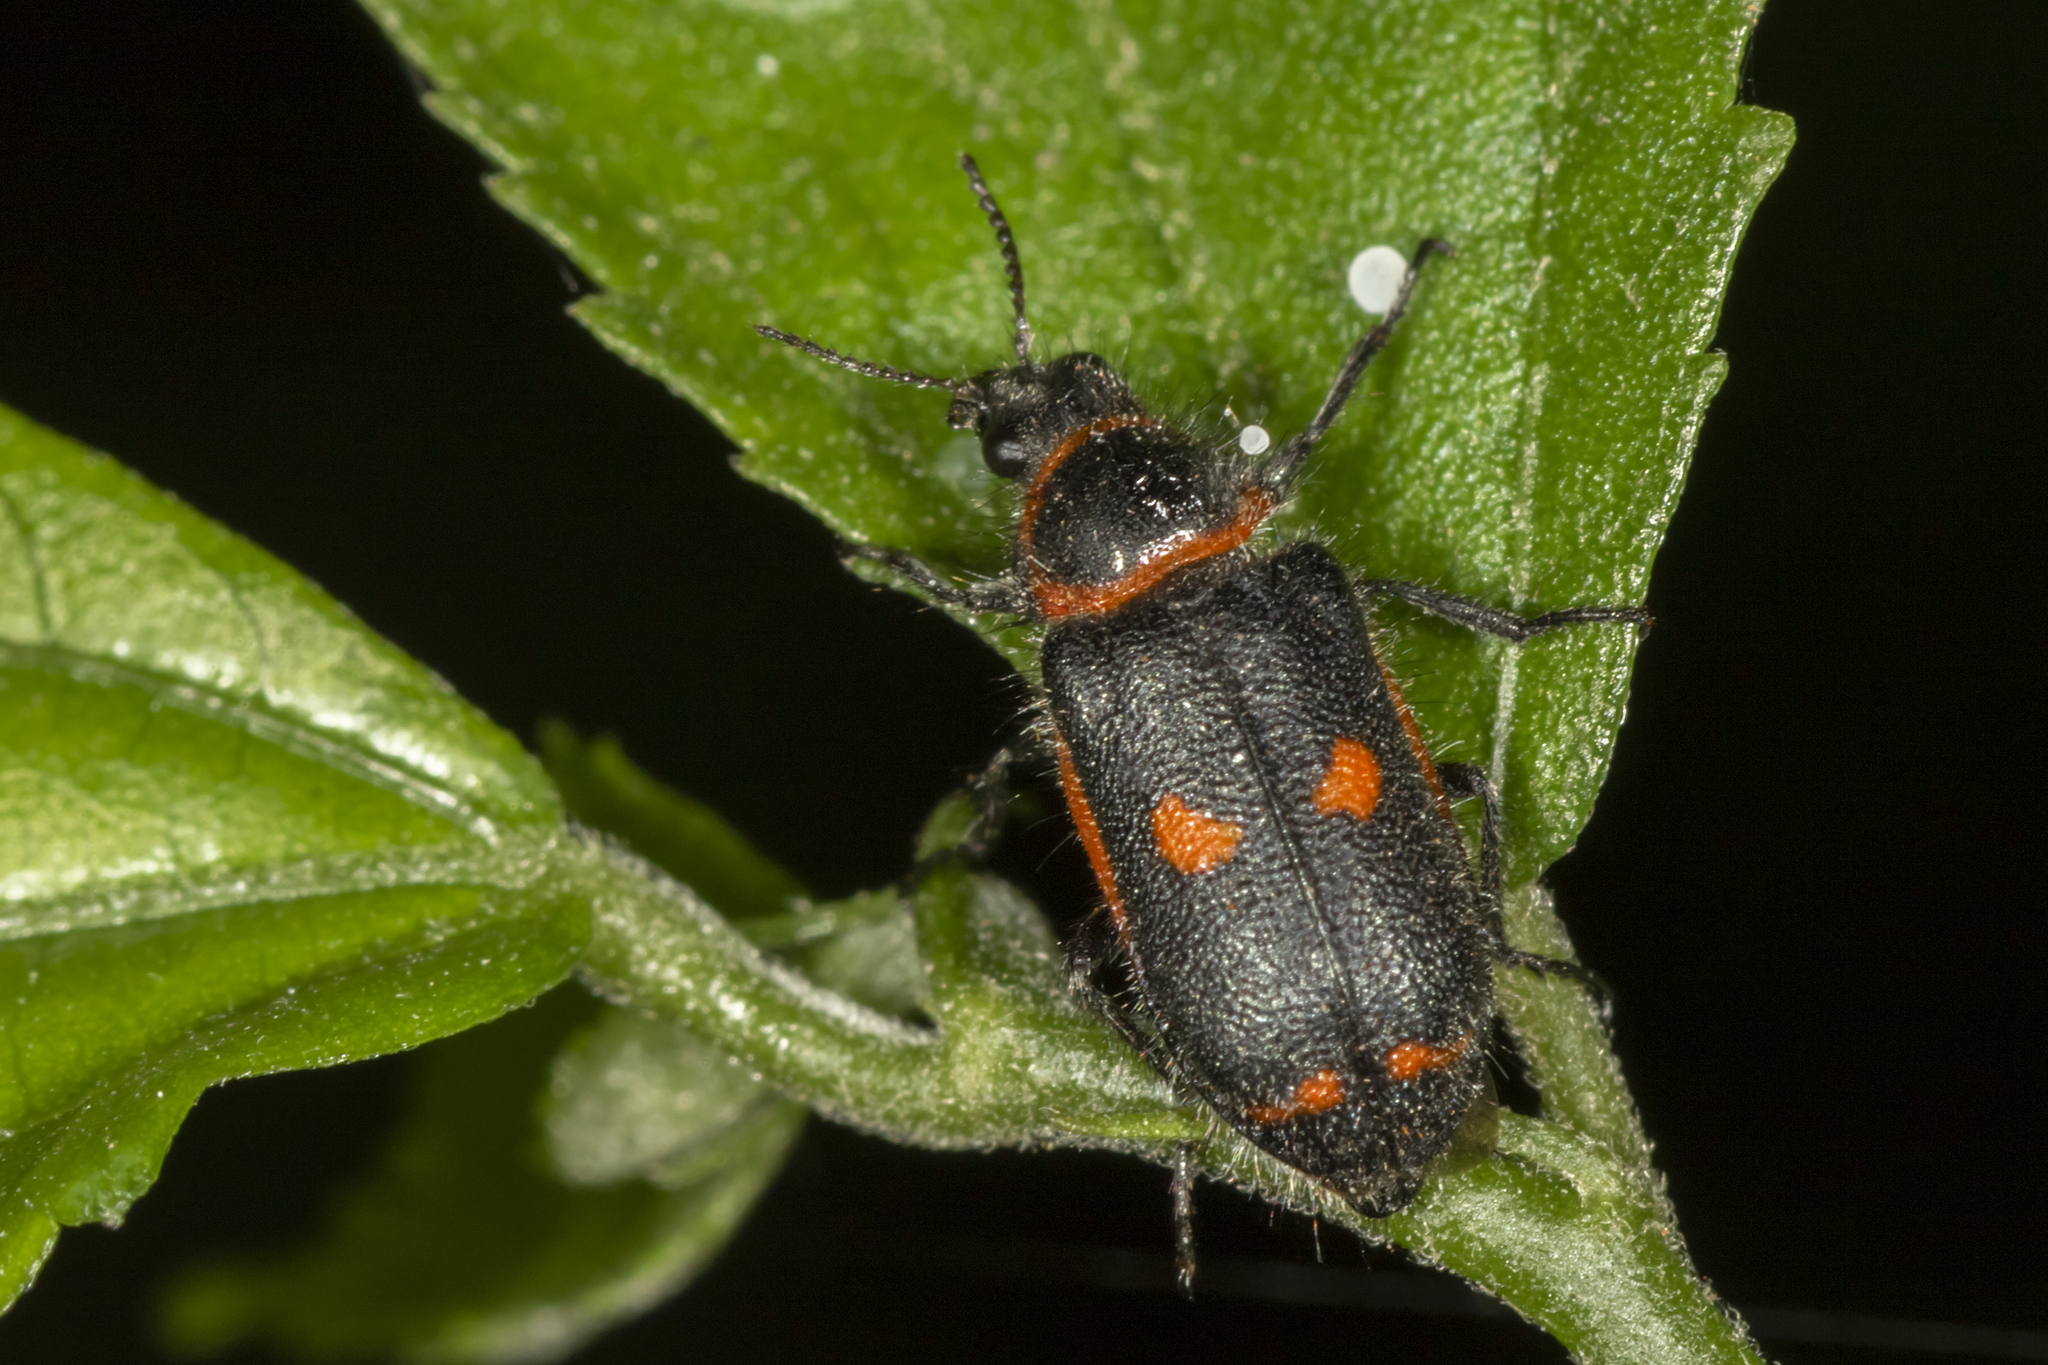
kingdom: Animalia
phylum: Arthropoda
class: Insecta
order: Coleoptera
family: Melyridae
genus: Astylus
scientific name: Astylus
